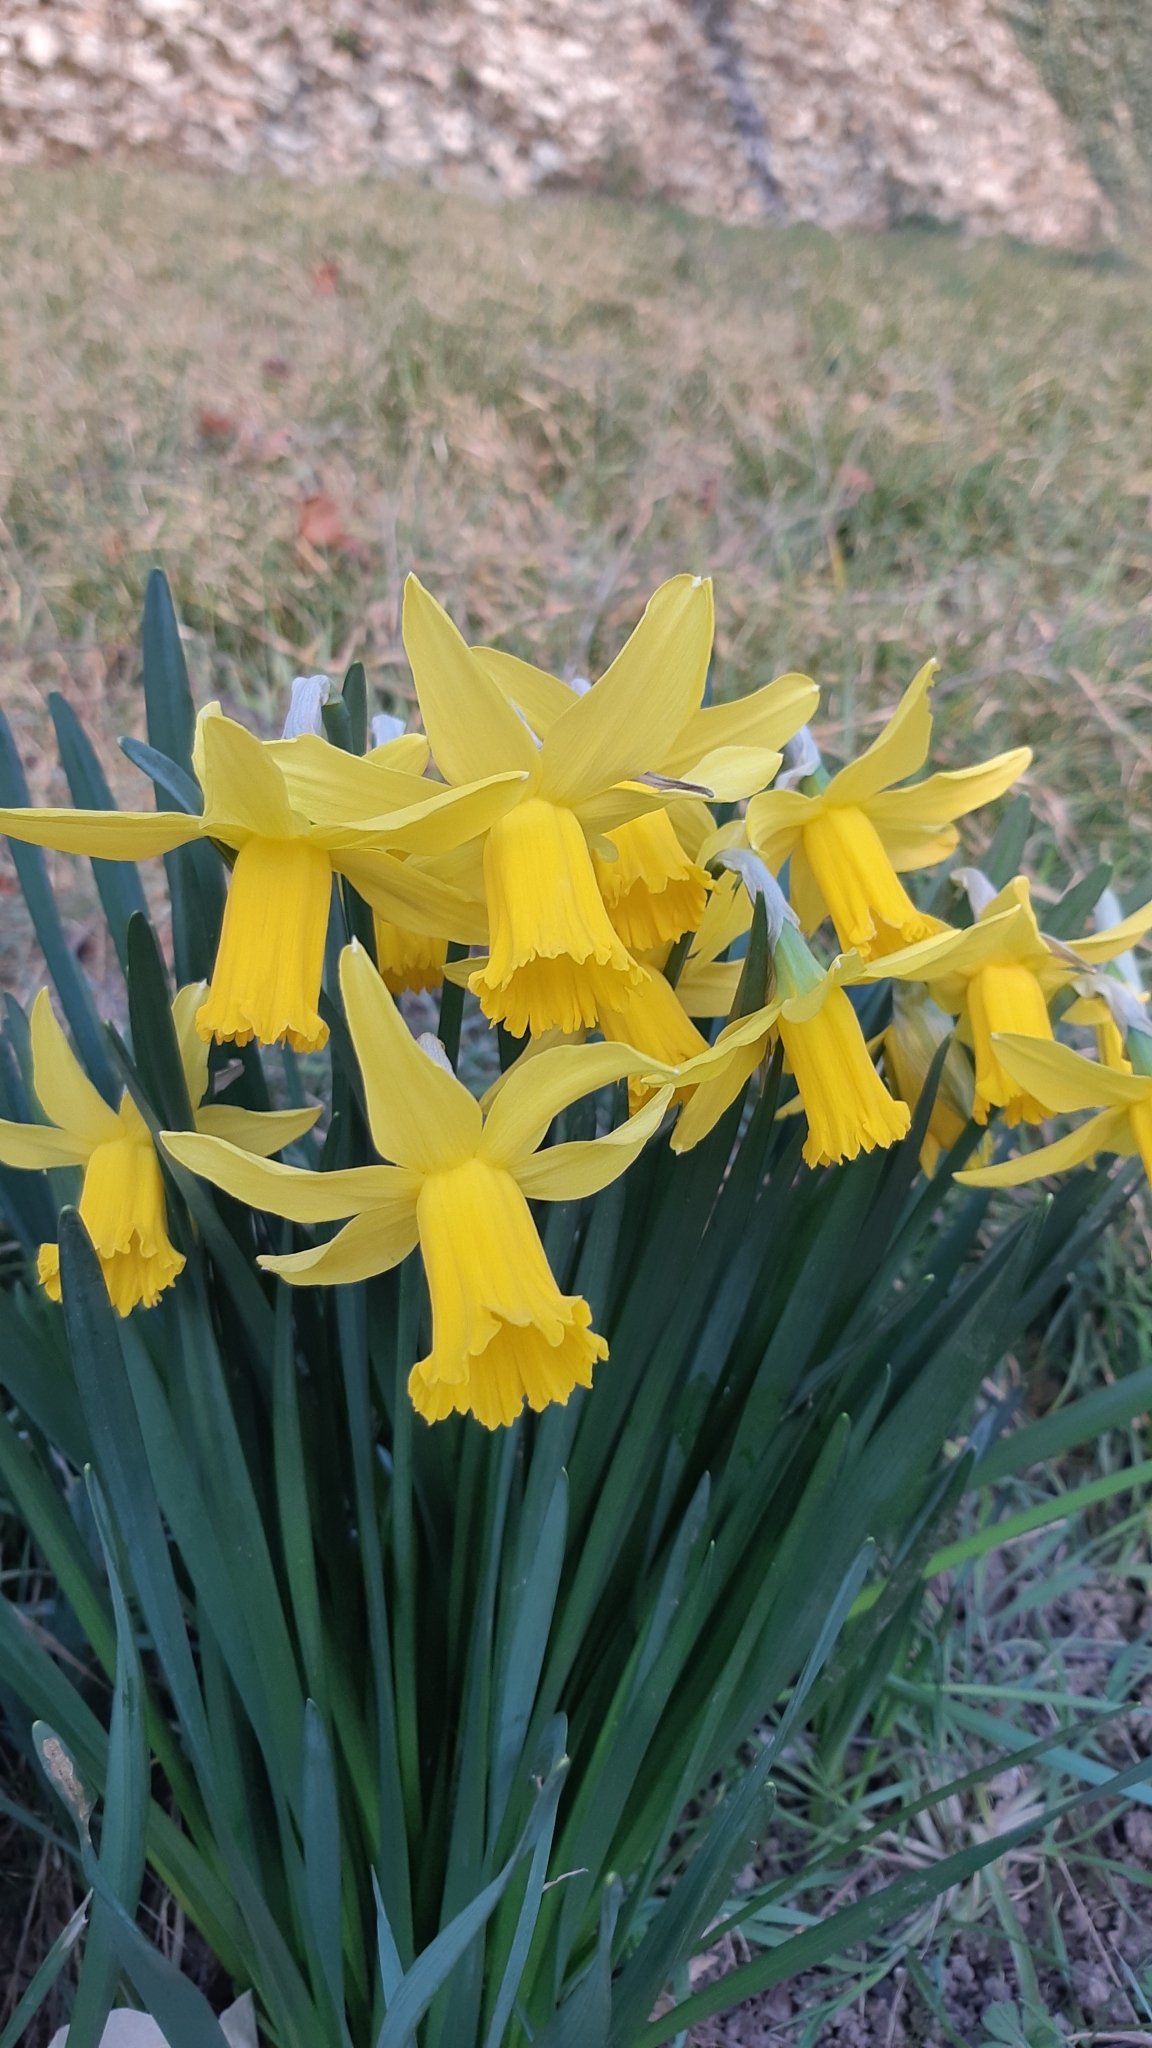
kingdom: Plantae
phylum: Tracheophyta
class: Liliopsida
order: Asparagales
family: Amaryllidaceae
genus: Narcissus
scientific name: Narcissus pseudonarcissus
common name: Daffodil
